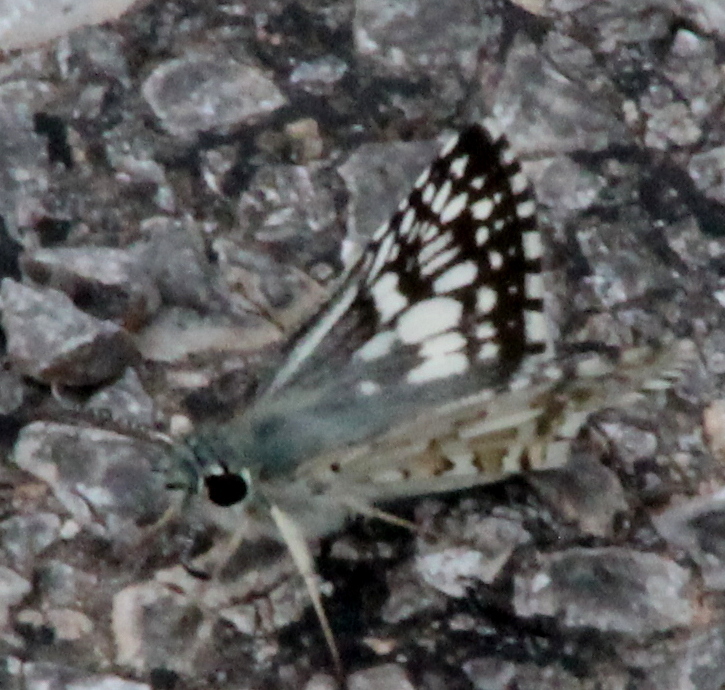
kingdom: Animalia
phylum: Arthropoda
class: Insecta
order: Lepidoptera
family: Hesperiidae
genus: Burnsius
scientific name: Burnsius communis
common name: Common checkered-skipper
